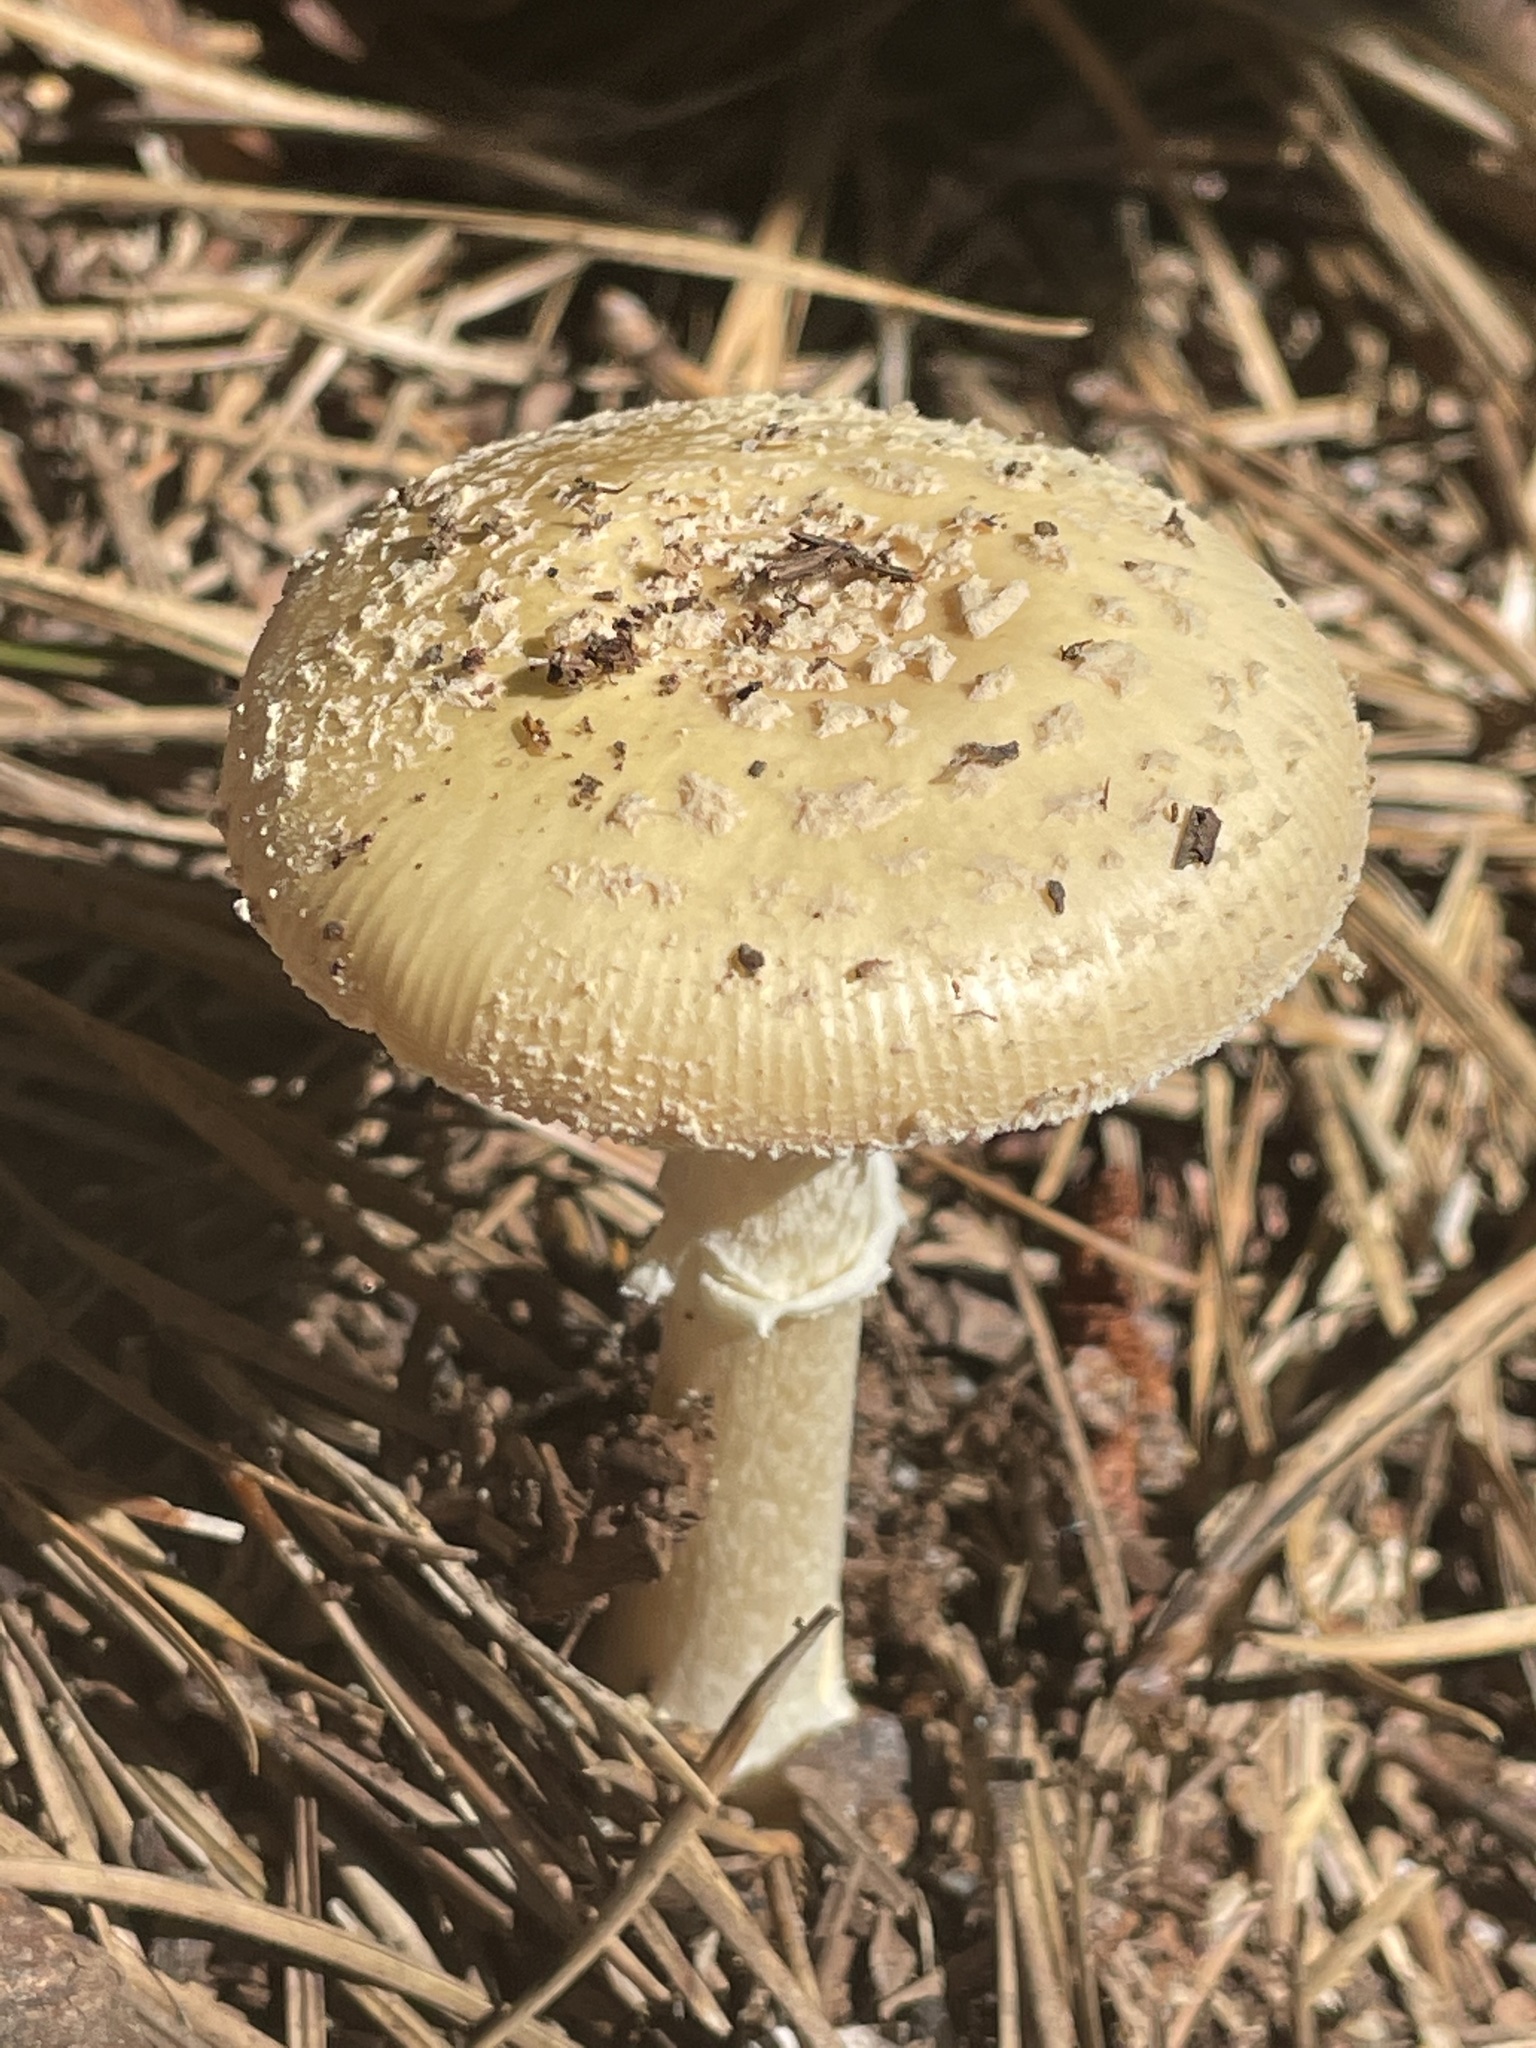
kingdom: Fungi
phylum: Basidiomycota
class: Agaricomycetes
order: Agaricales
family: Amanitaceae
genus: Amanita
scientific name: Amanita crenulata
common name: Poison champagne amanita
